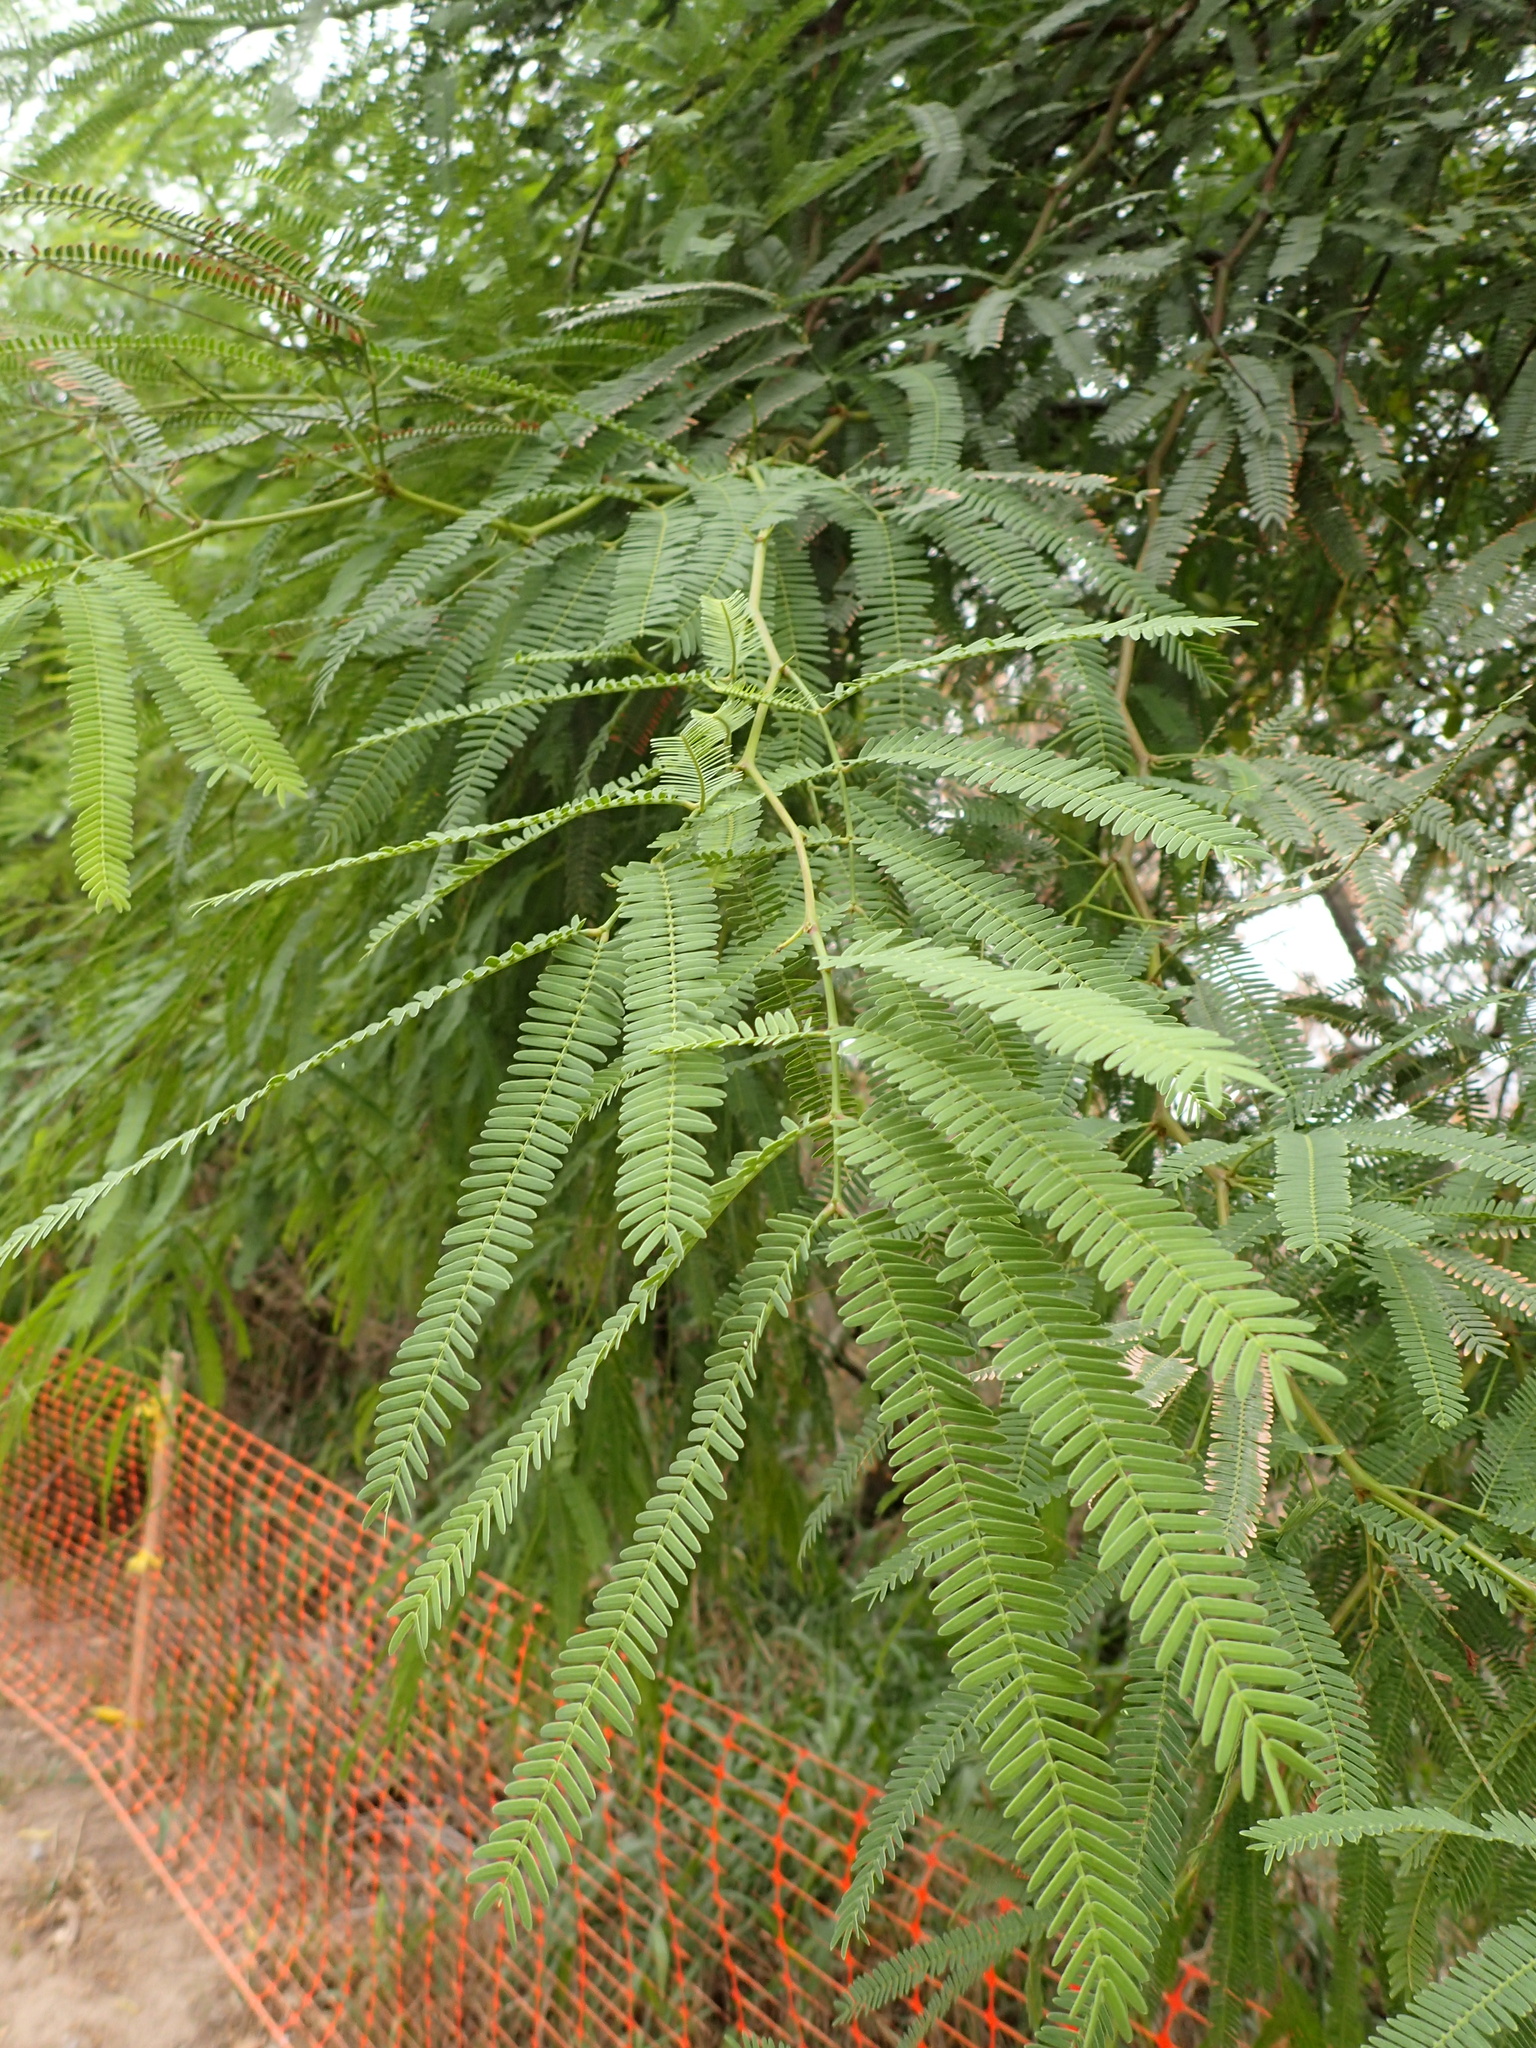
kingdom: Plantae
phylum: Tracheophyta
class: Magnoliopsida
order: Fabales
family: Fabaceae
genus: Prosopis
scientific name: Prosopis alba
